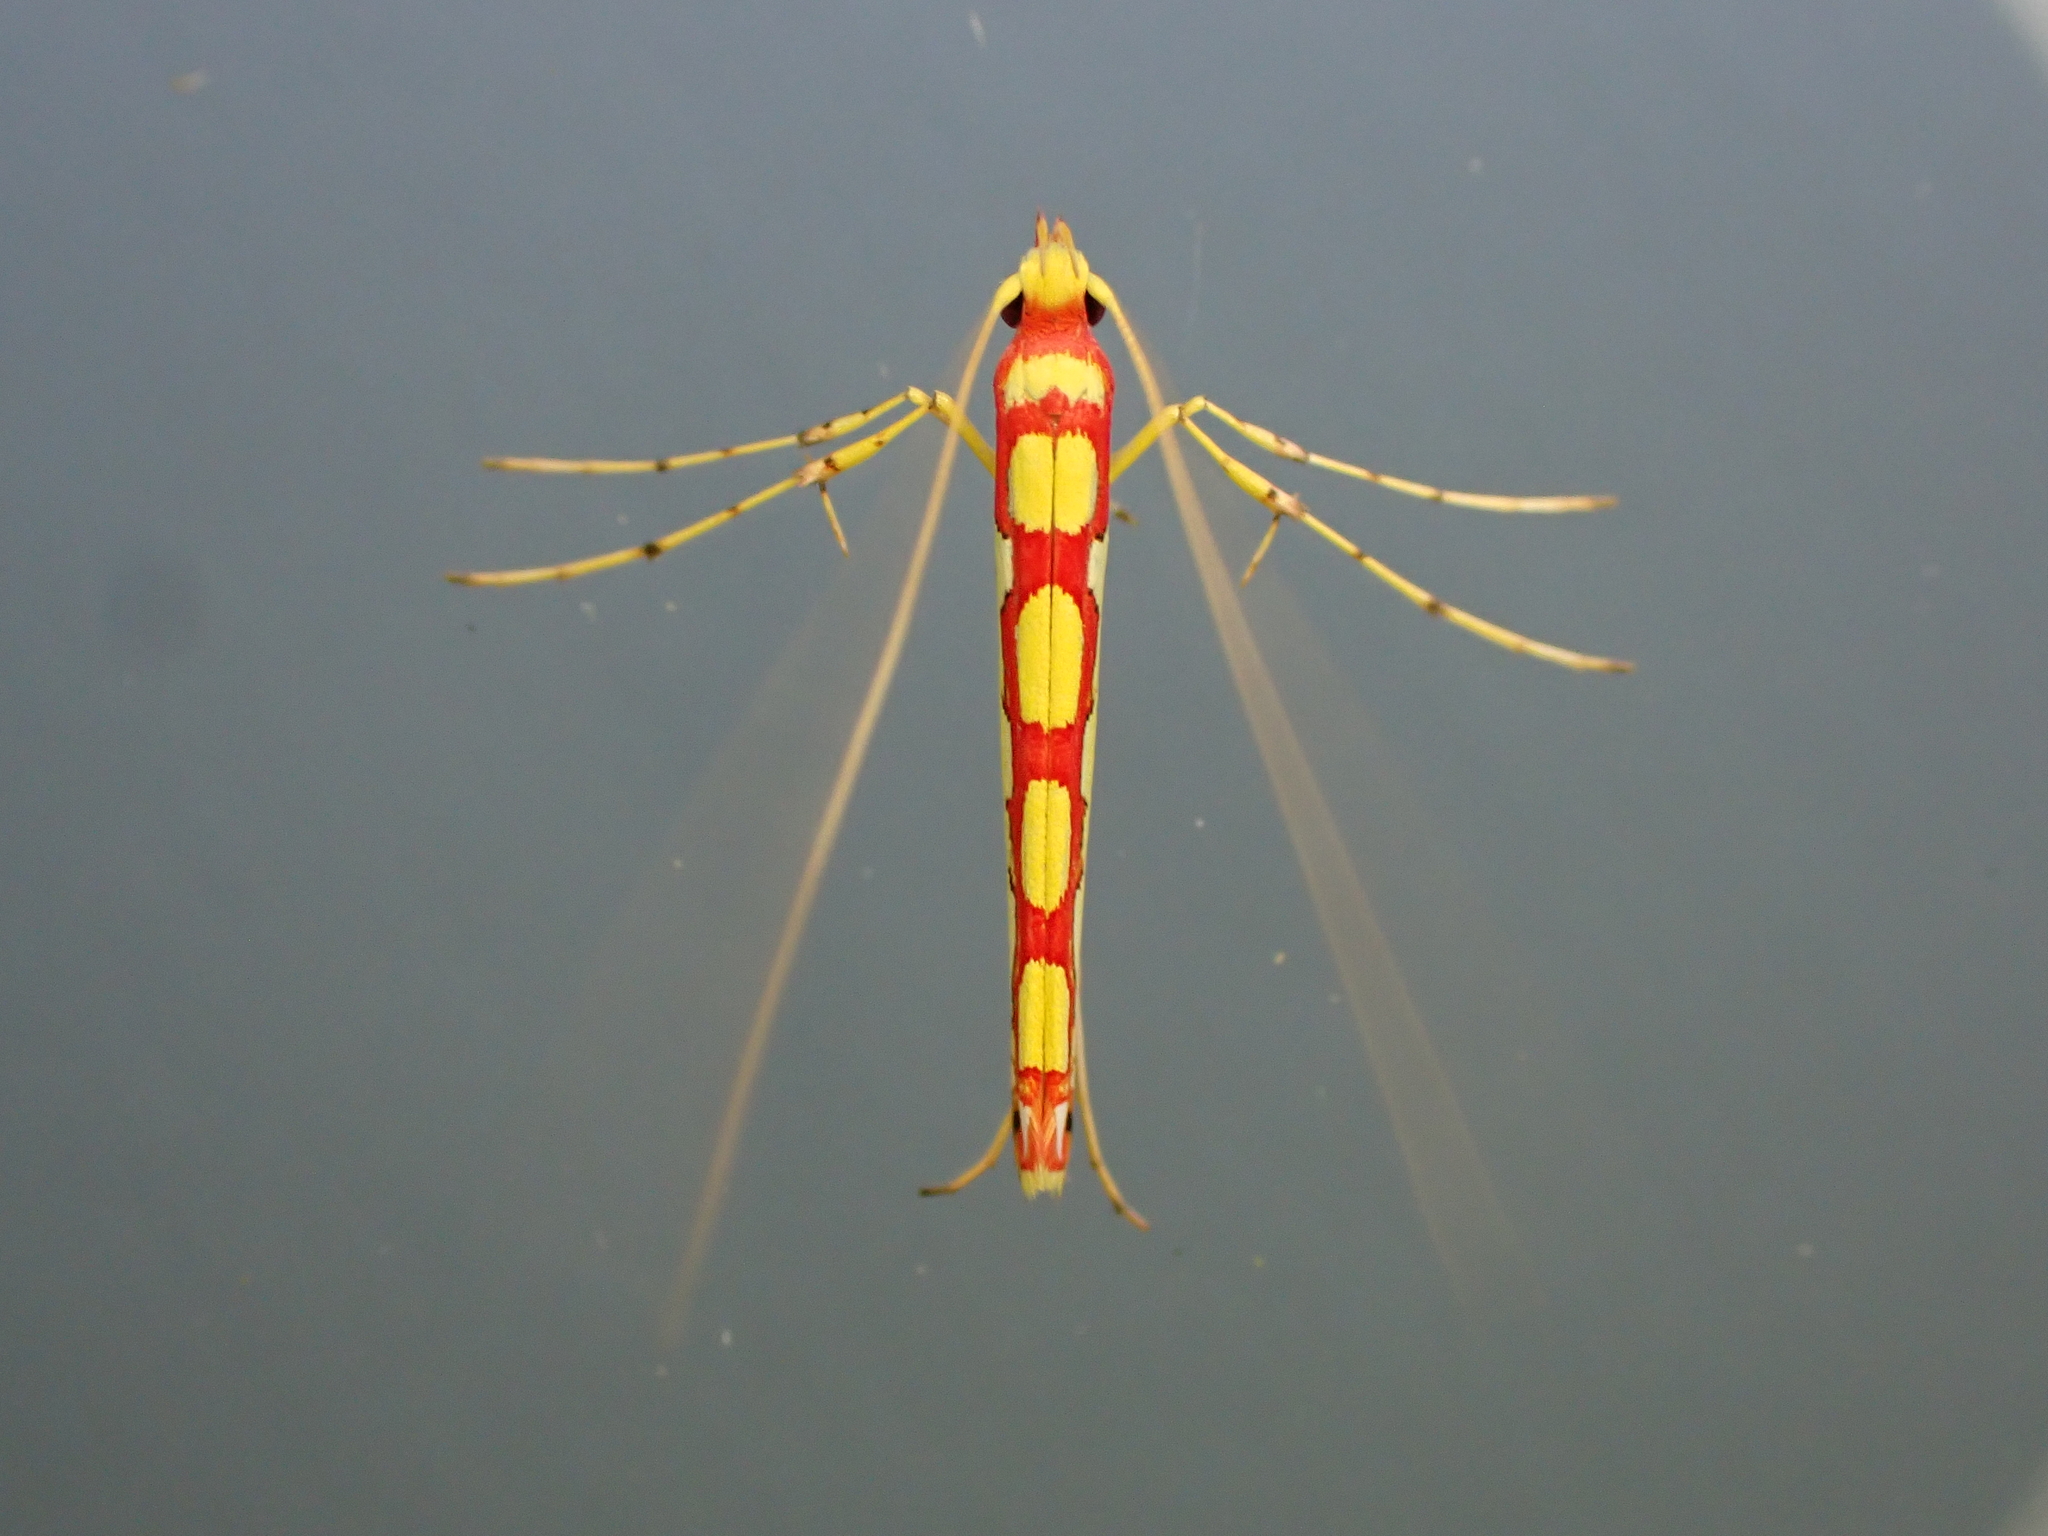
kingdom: Animalia
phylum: Arthropoda
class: Insecta
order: Lepidoptera
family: Gracillariidae
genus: Macarostola
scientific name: Macarostola miniella
